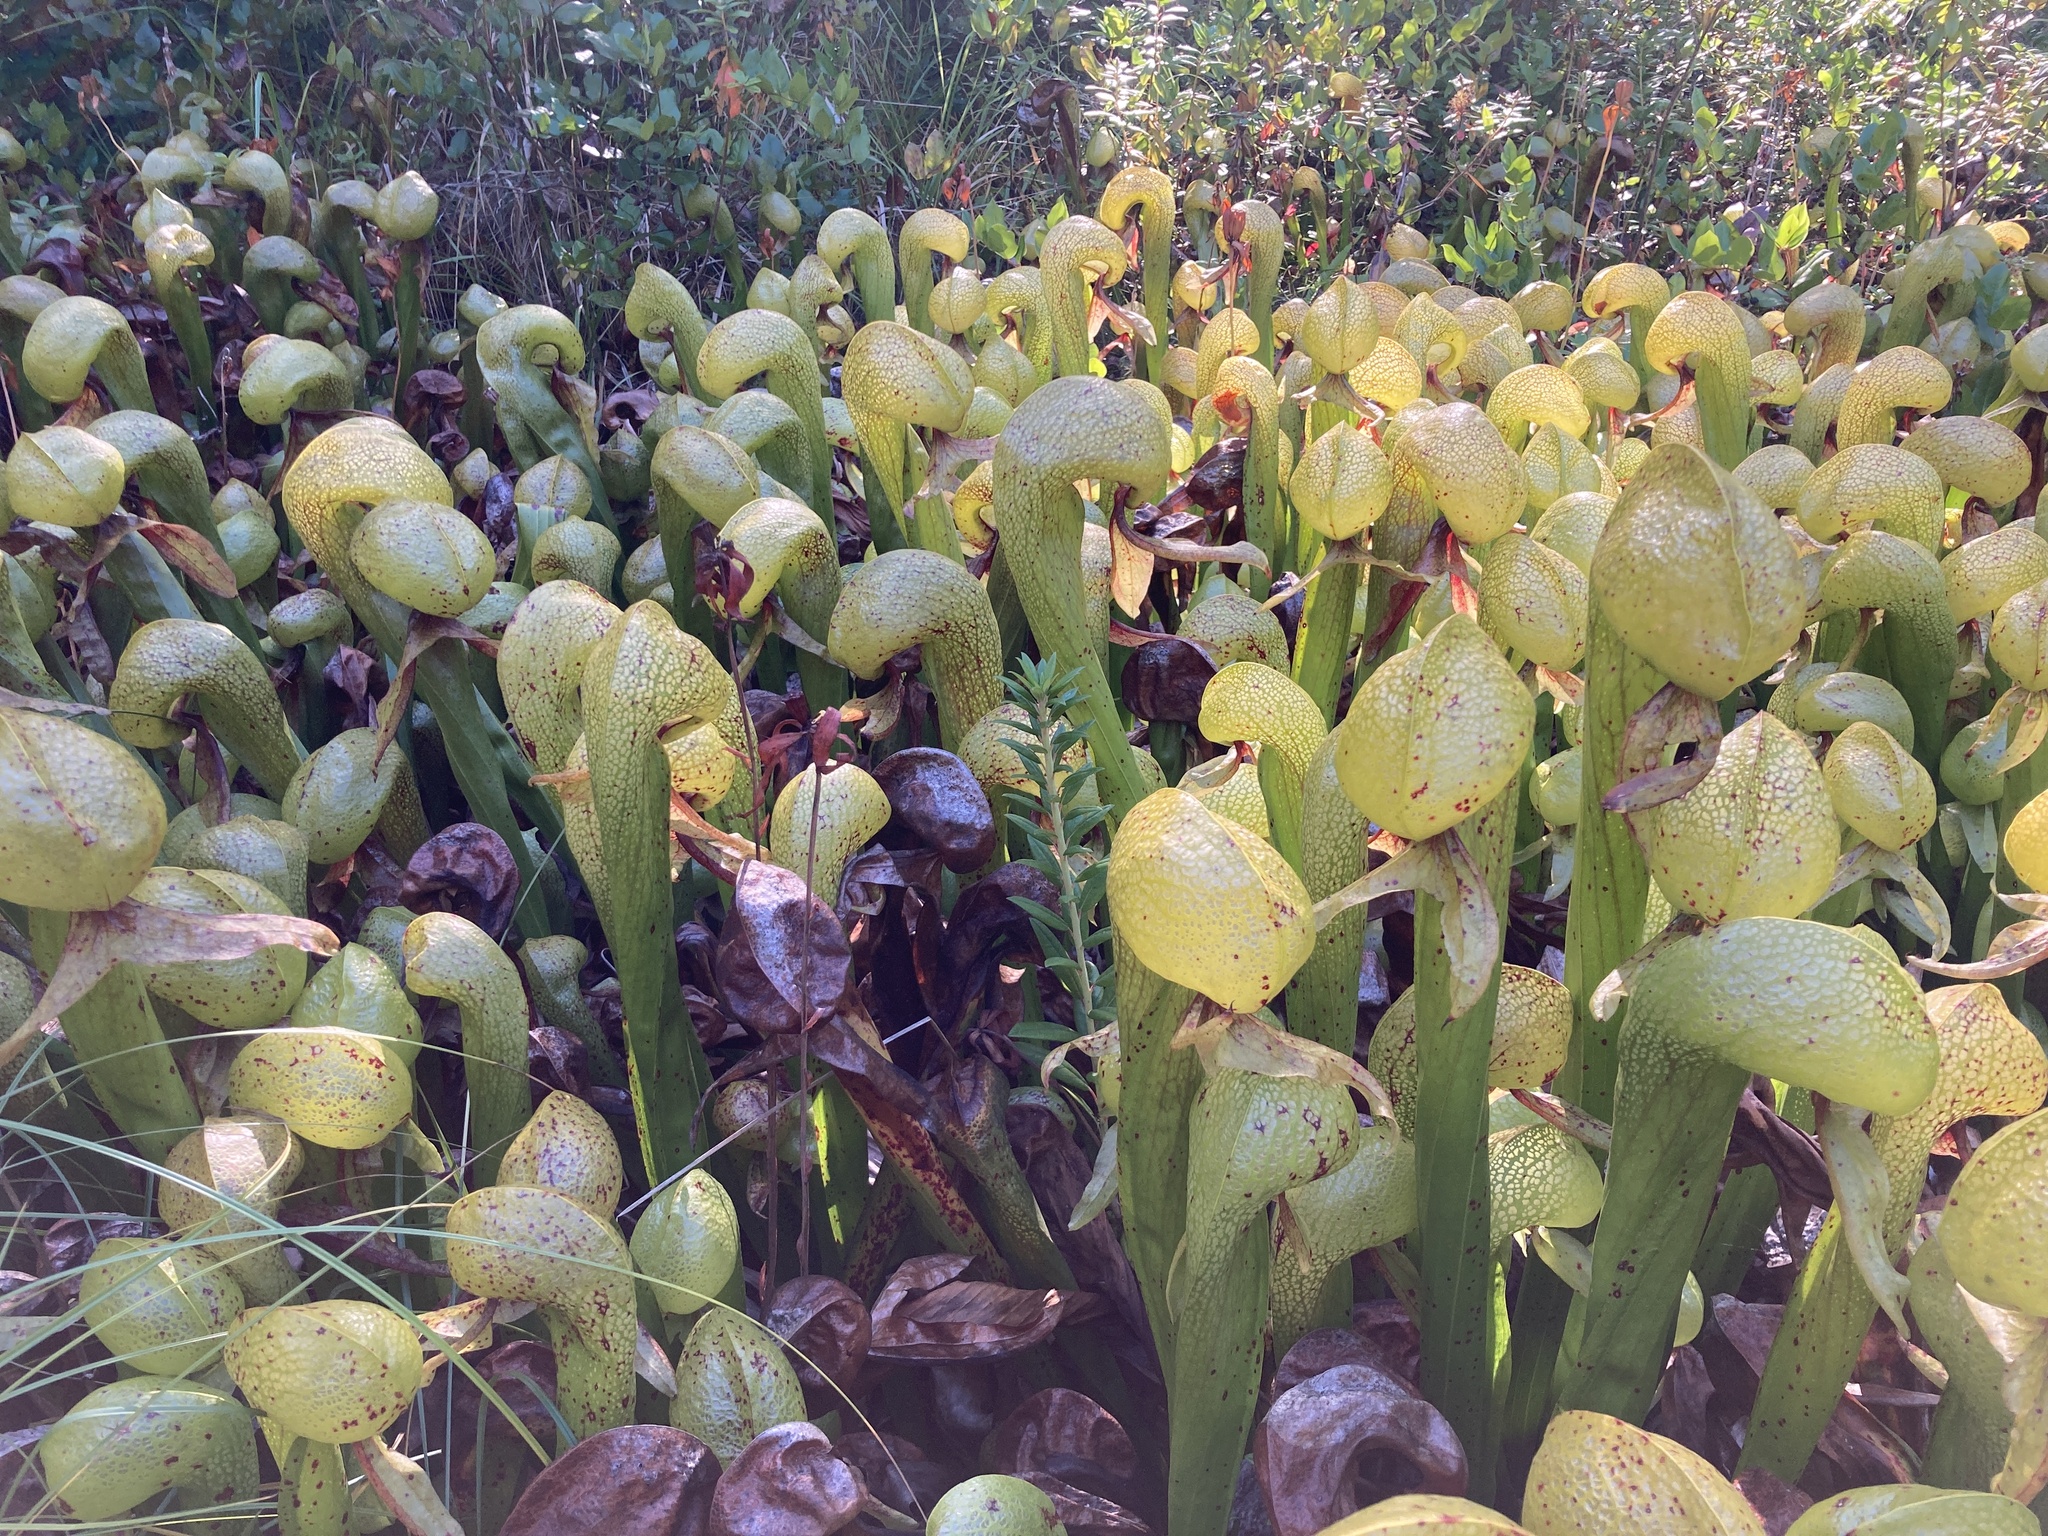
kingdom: Plantae
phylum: Tracheophyta
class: Magnoliopsida
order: Ericales
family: Sarraceniaceae
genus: Darlingtonia
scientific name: Darlingtonia californica
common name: California pitcher plant
